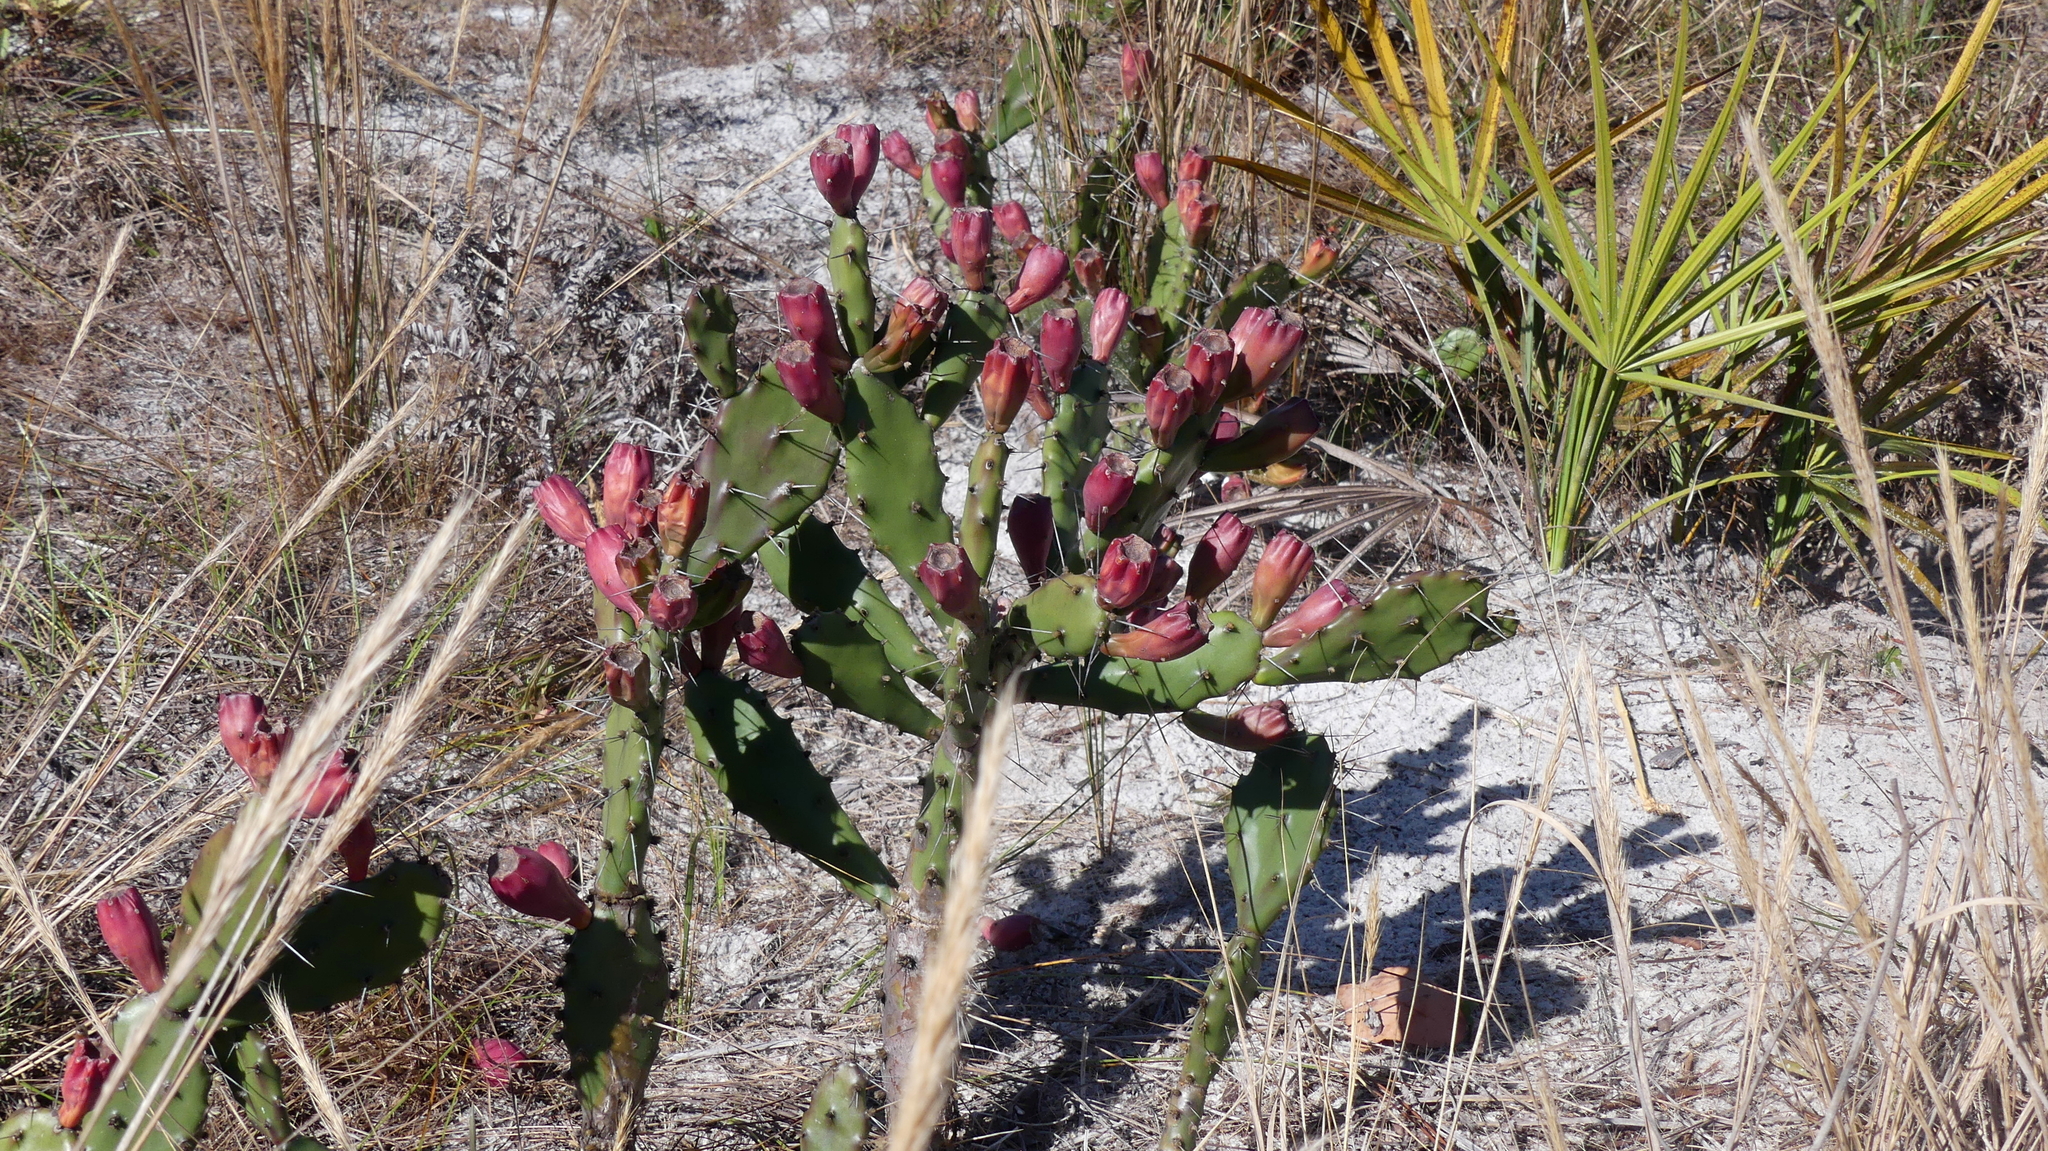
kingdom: Plantae
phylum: Tracheophyta
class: Magnoliopsida
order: Caryophyllales
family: Cactaceae
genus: Opuntia
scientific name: Opuntia austrina
